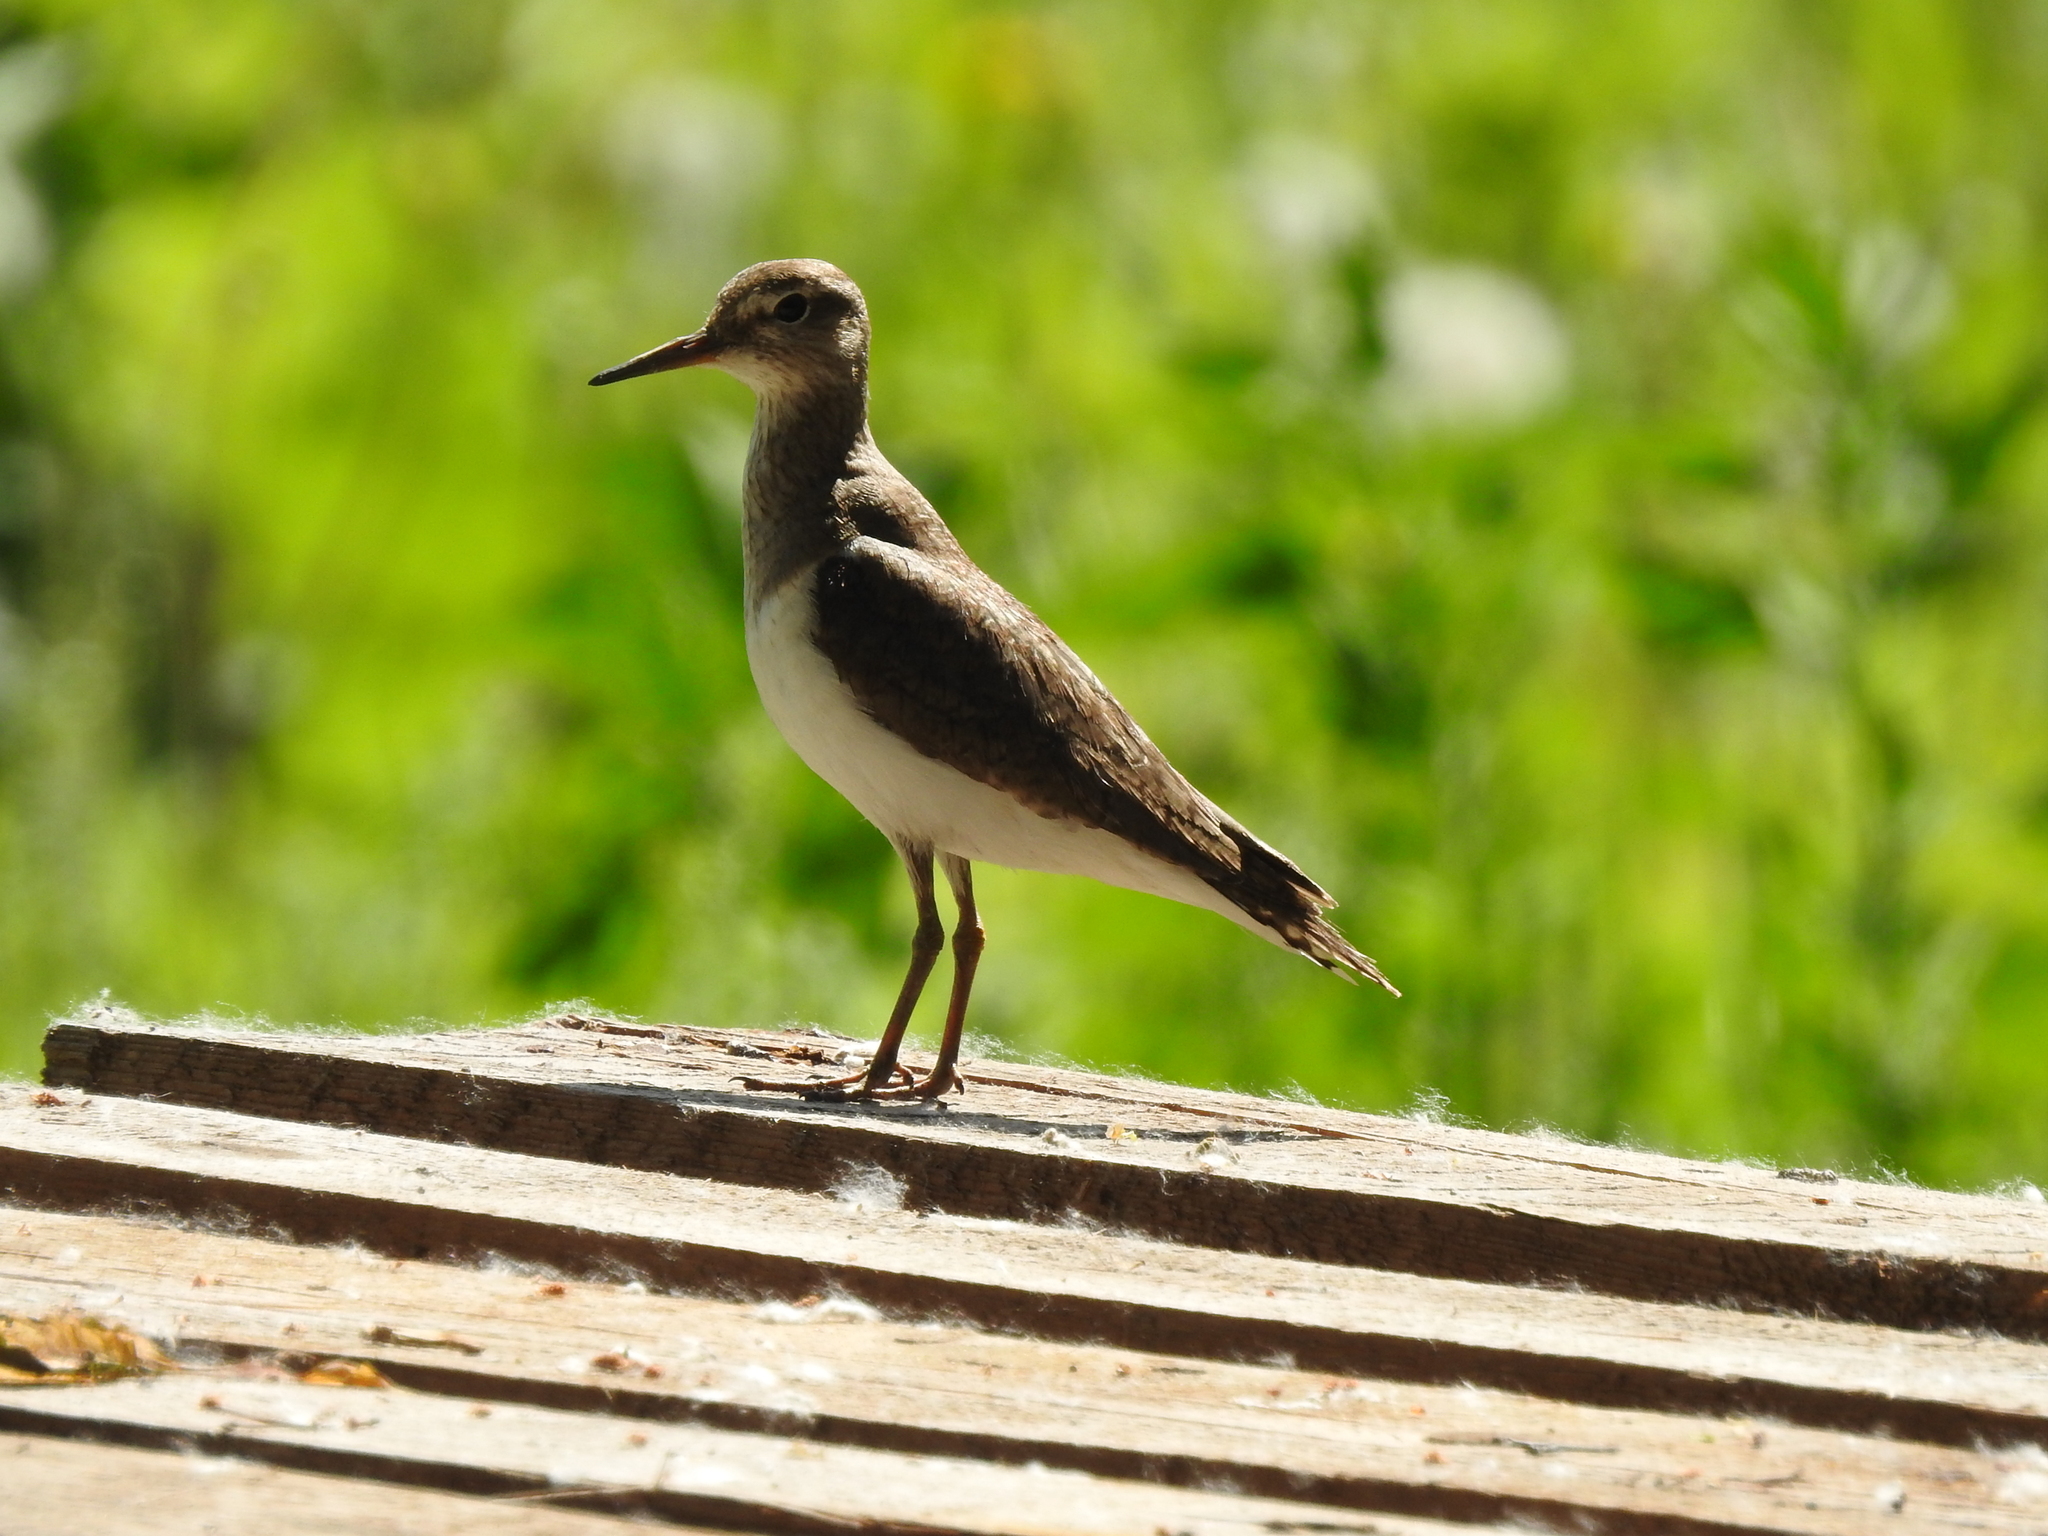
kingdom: Animalia
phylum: Chordata
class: Aves
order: Charadriiformes
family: Scolopacidae
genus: Actitis
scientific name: Actitis hypoleucos
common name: Common sandpiper
